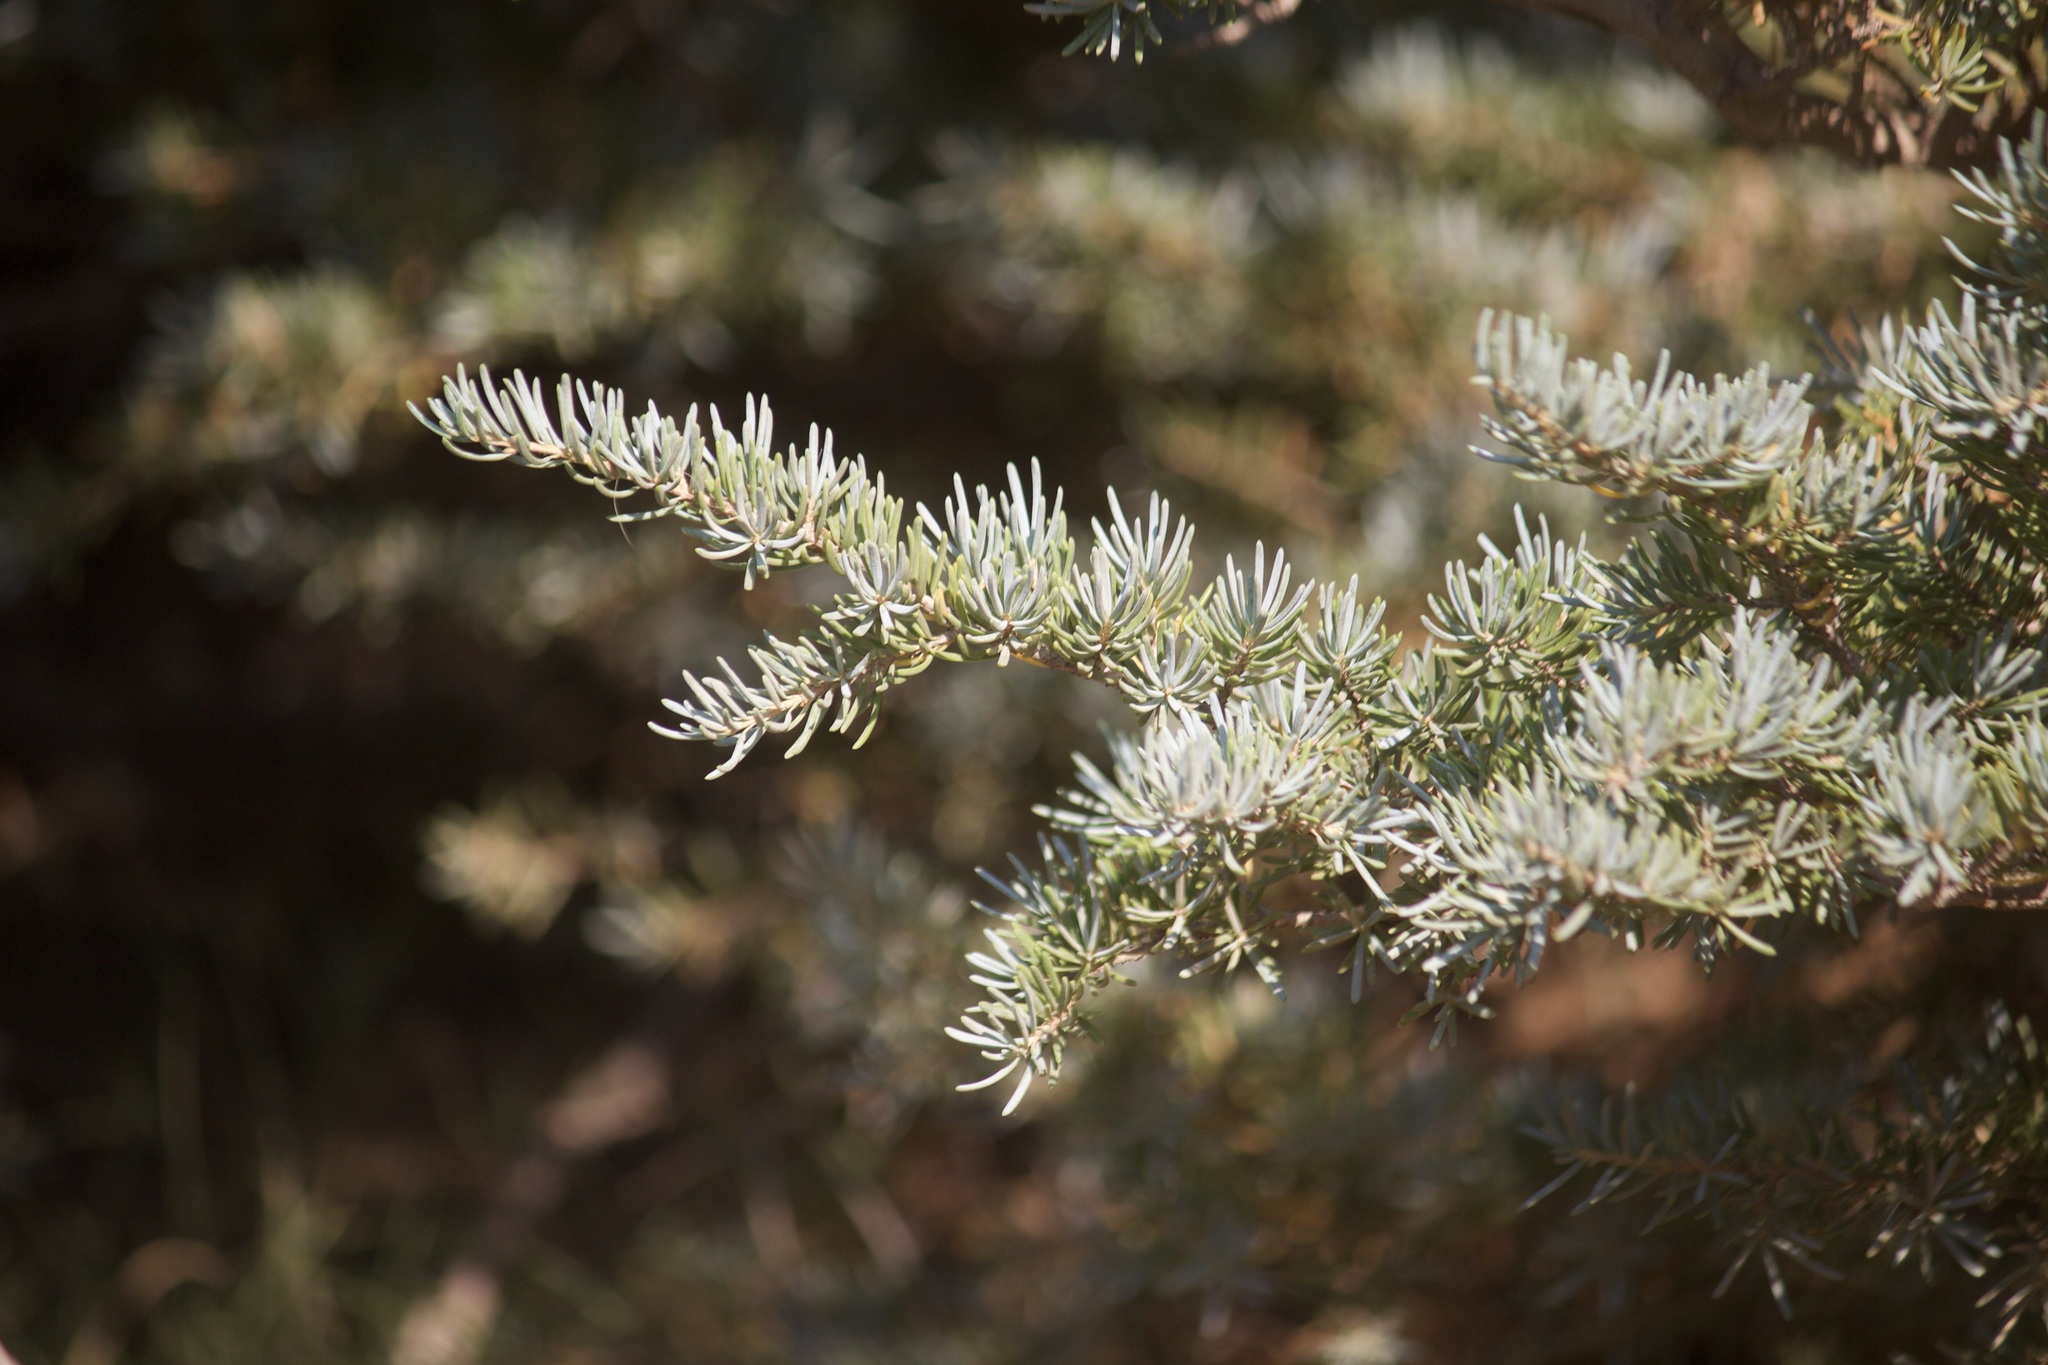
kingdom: Plantae
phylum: Tracheophyta
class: Pinopsida
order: Pinales
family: Pinaceae
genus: Tsuga
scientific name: Tsuga mertensiana
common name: Mountain hemlock
